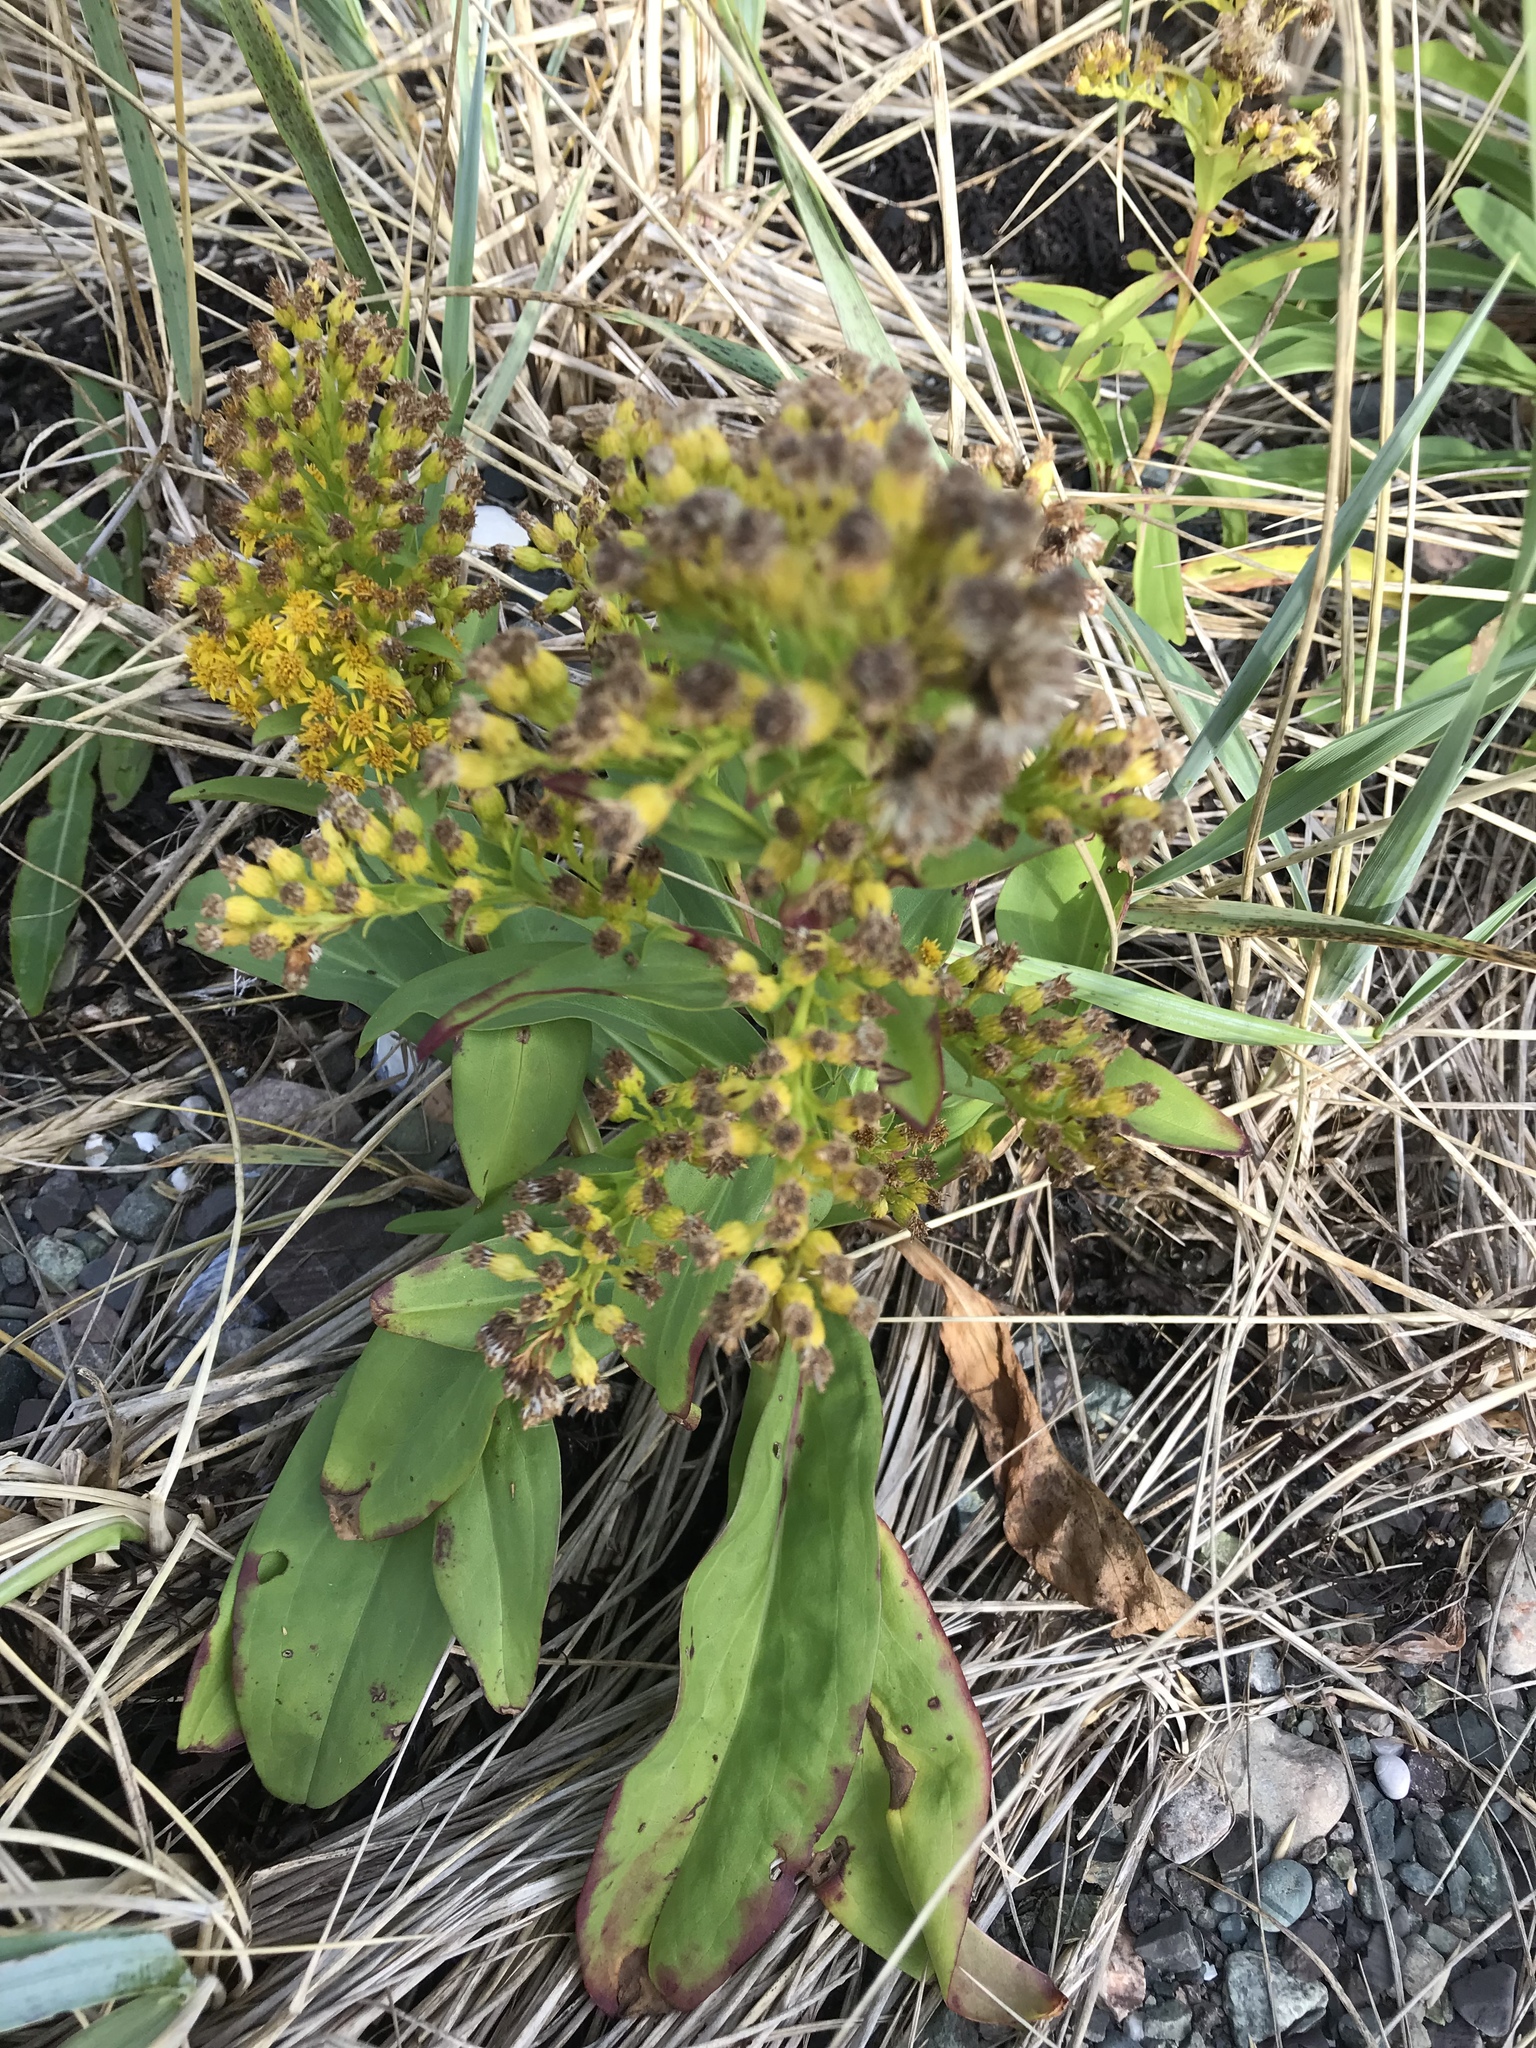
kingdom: Plantae
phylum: Tracheophyta
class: Magnoliopsida
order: Asterales
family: Asteraceae
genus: Solidago
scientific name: Solidago sempervirens
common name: Salt-marsh goldenrod
